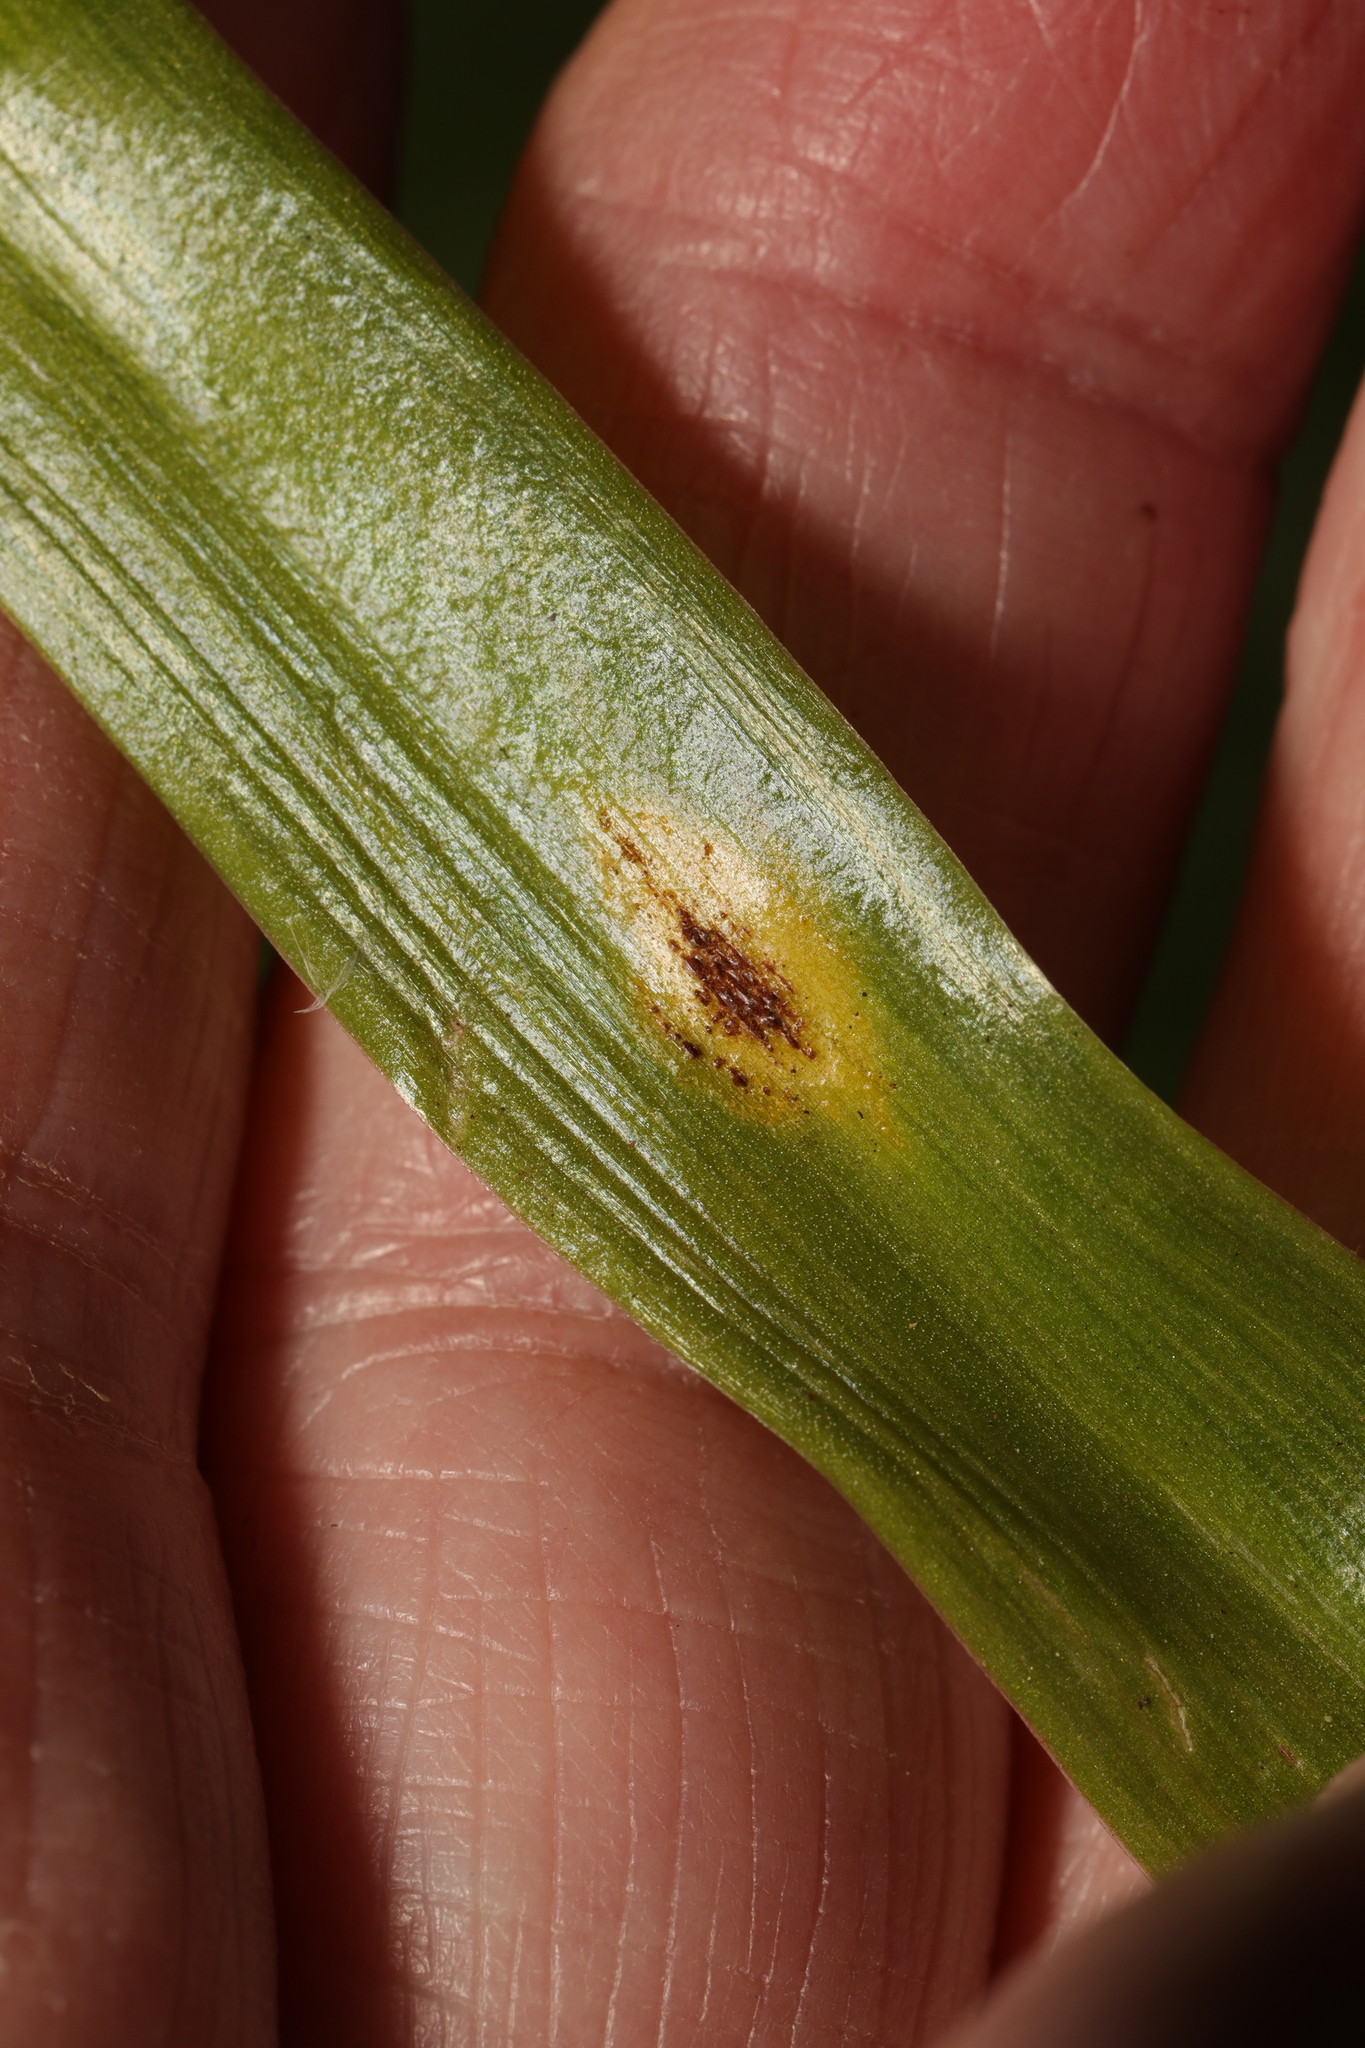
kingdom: Fungi
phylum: Basidiomycota
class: Pucciniomycetes
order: Pucciniales
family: Pucciniaceae
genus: Uromyces
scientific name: Uromyces hyacinthi
